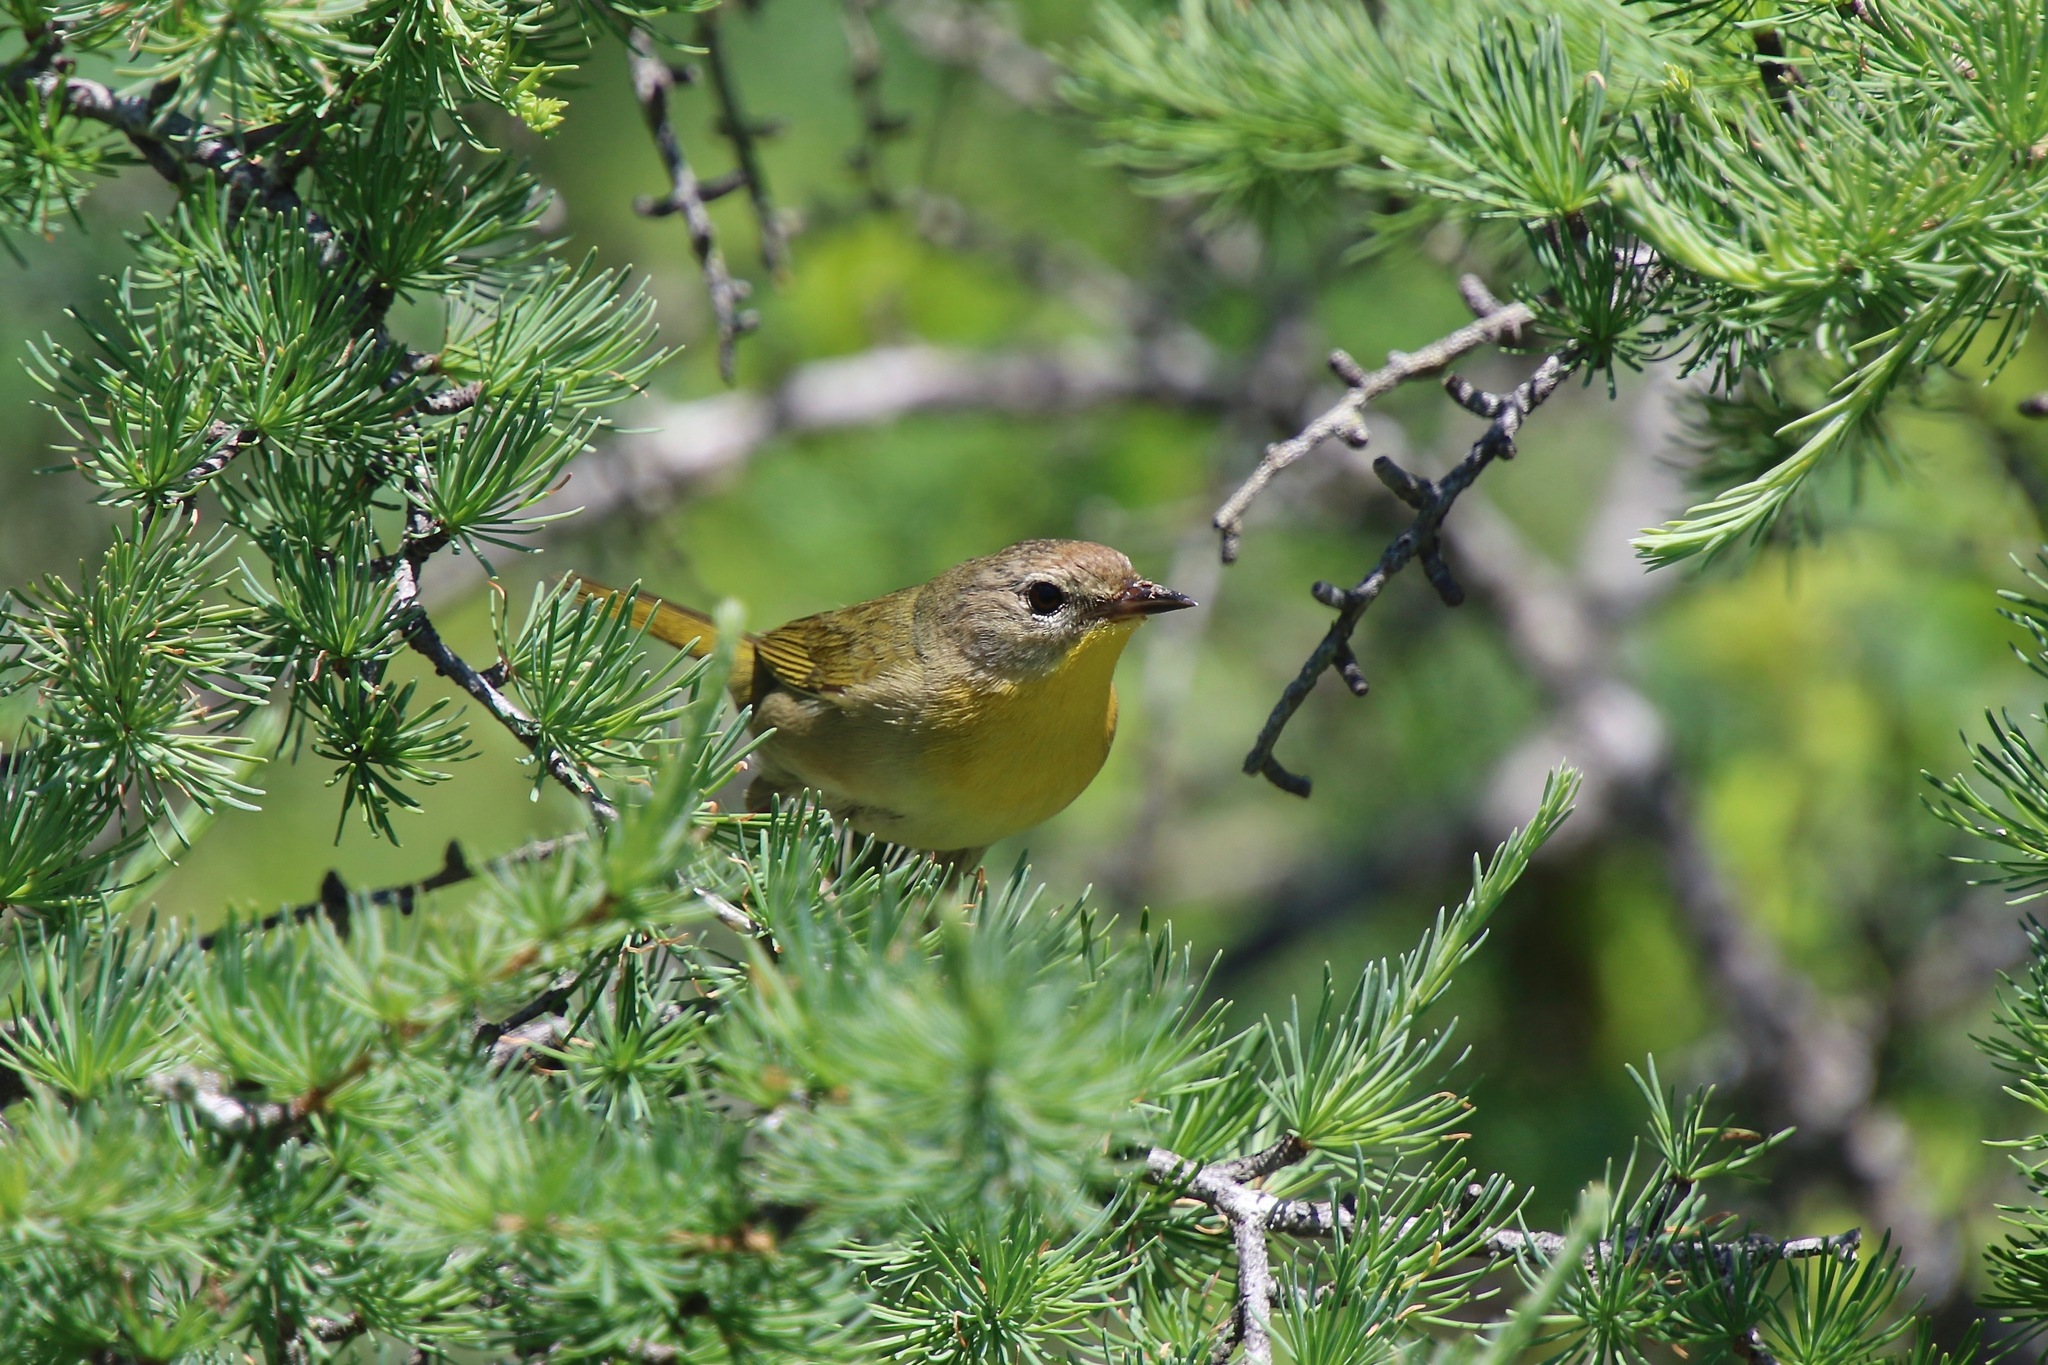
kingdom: Animalia
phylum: Chordata
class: Aves
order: Passeriformes
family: Parulidae
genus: Geothlypis
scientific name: Geothlypis trichas
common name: Common yellowthroat
